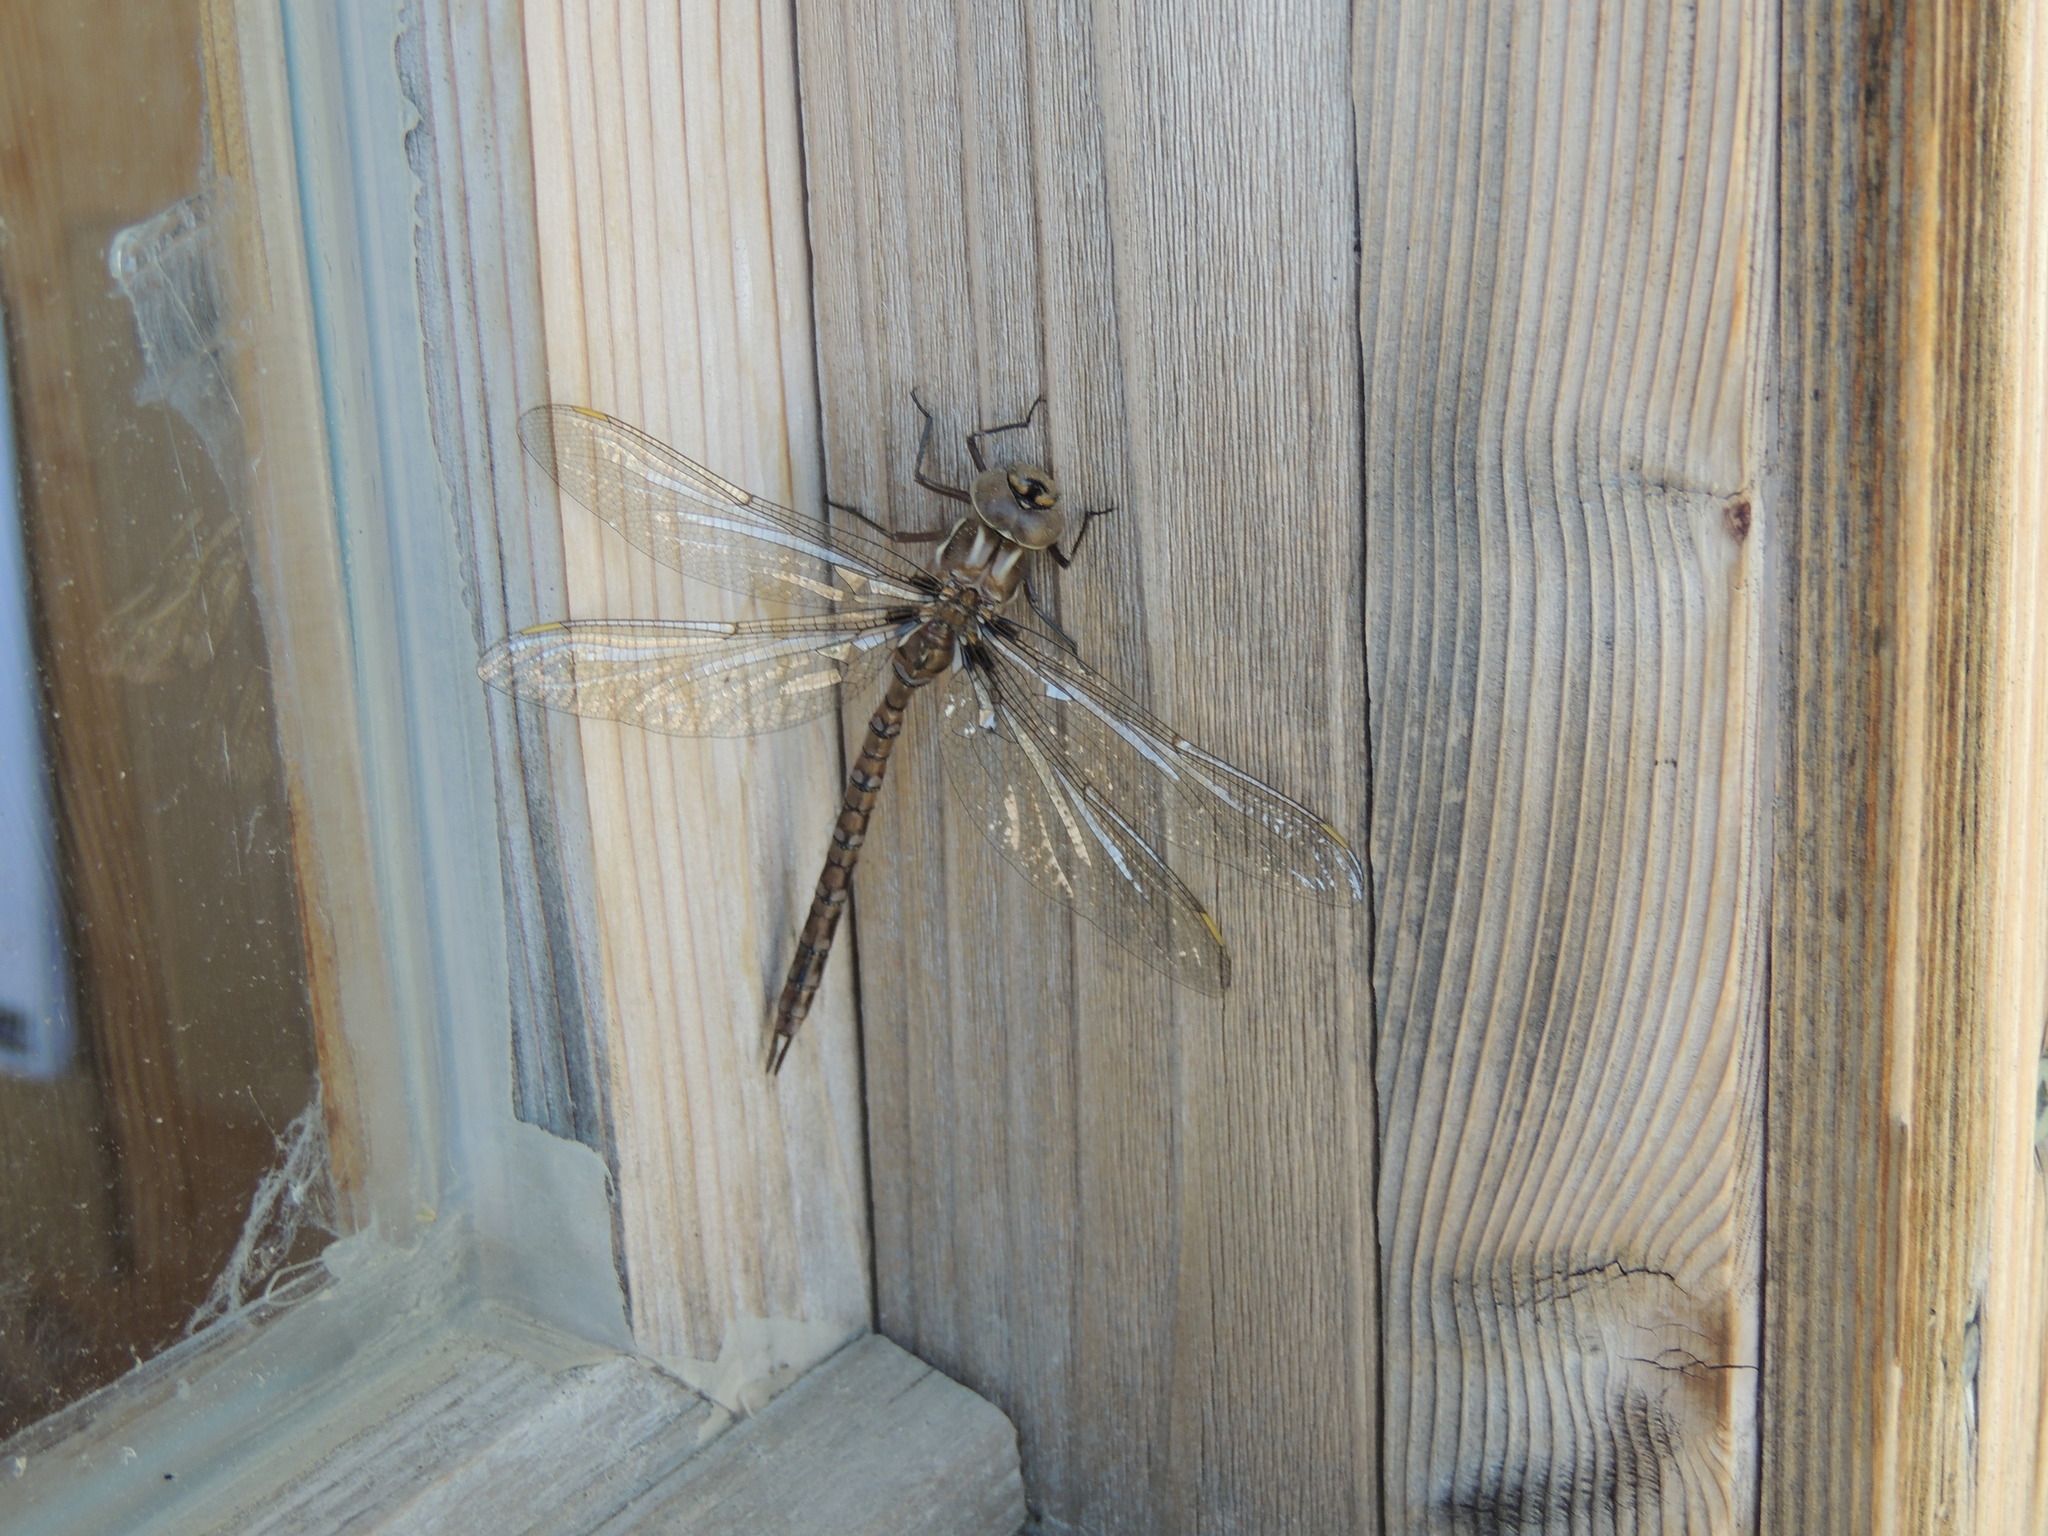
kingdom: Animalia
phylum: Arthropoda
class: Insecta
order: Odonata
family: Aeshnidae
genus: Basiaeschna
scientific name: Basiaeschna janata
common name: Springtime darner
